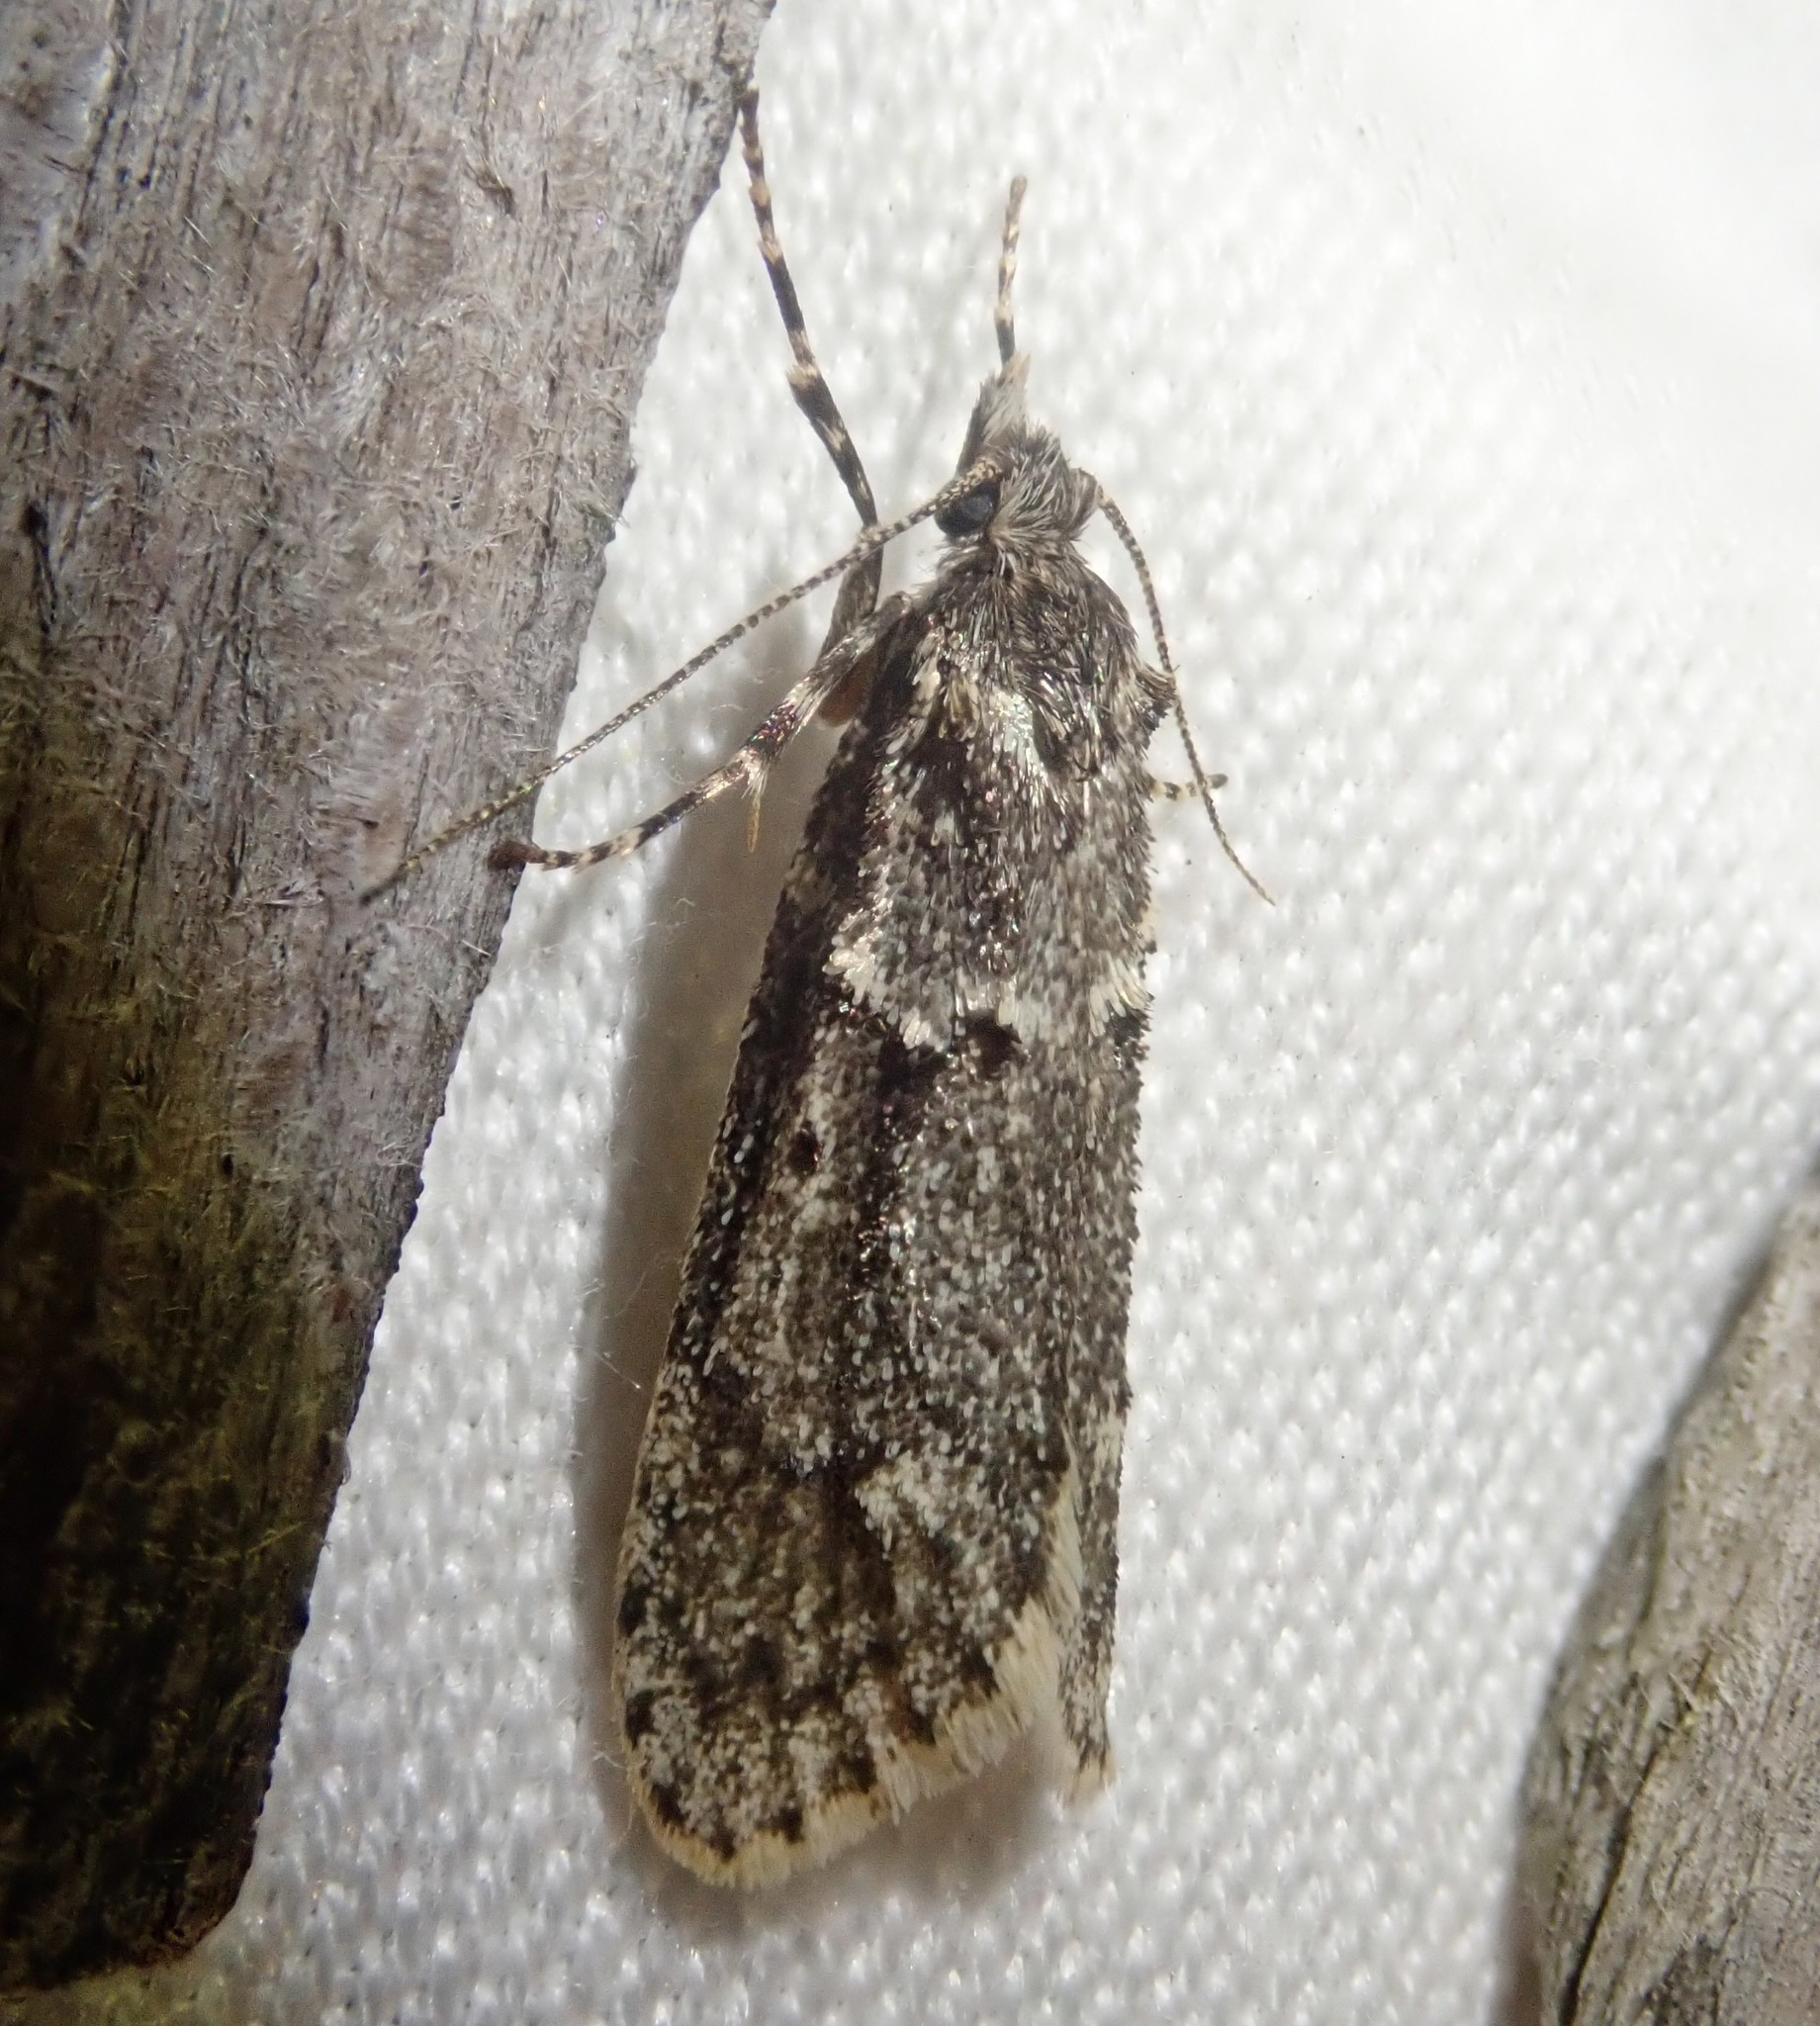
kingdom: Animalia
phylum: Arthropoda
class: Insecta
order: Lepidoptera
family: Lypusidae
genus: Diurnea
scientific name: Diurnea fagella
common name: March tubic
